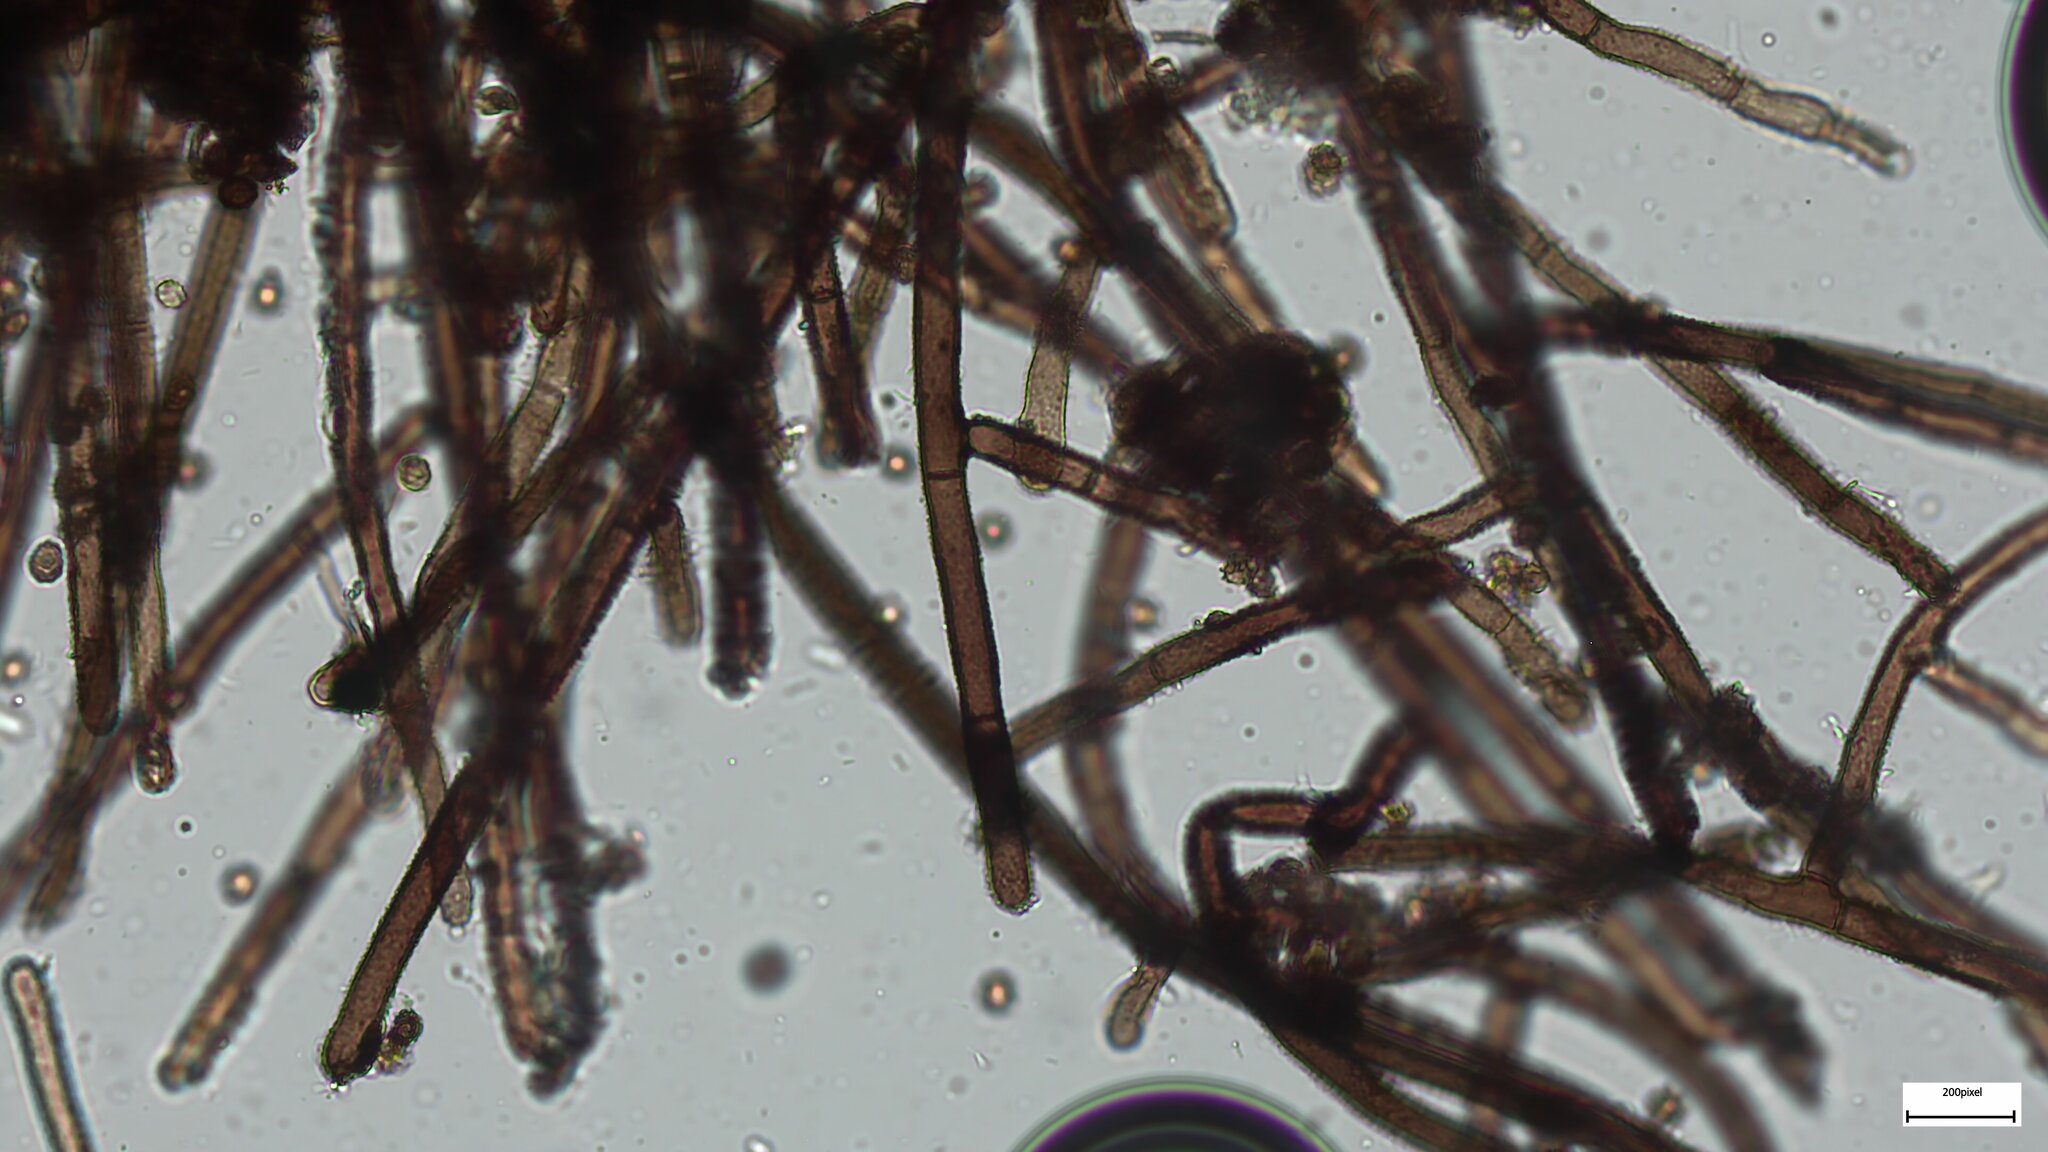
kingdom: Fungi
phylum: Ascomycota
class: Pezizomycetes
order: Pezizales
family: Pyronemataceae
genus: Trichaleurina
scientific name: Trichaleurina tenuispora
